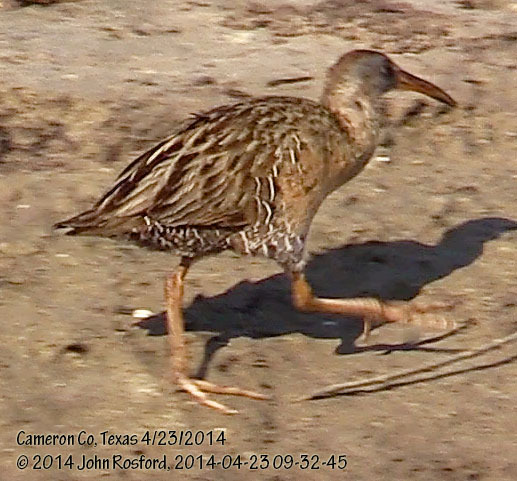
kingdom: Animalia
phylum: Chordata
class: Aves
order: Gruiformes
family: Rallidae
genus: Rallus
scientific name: Rallus crepitans
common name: Clapper rail
